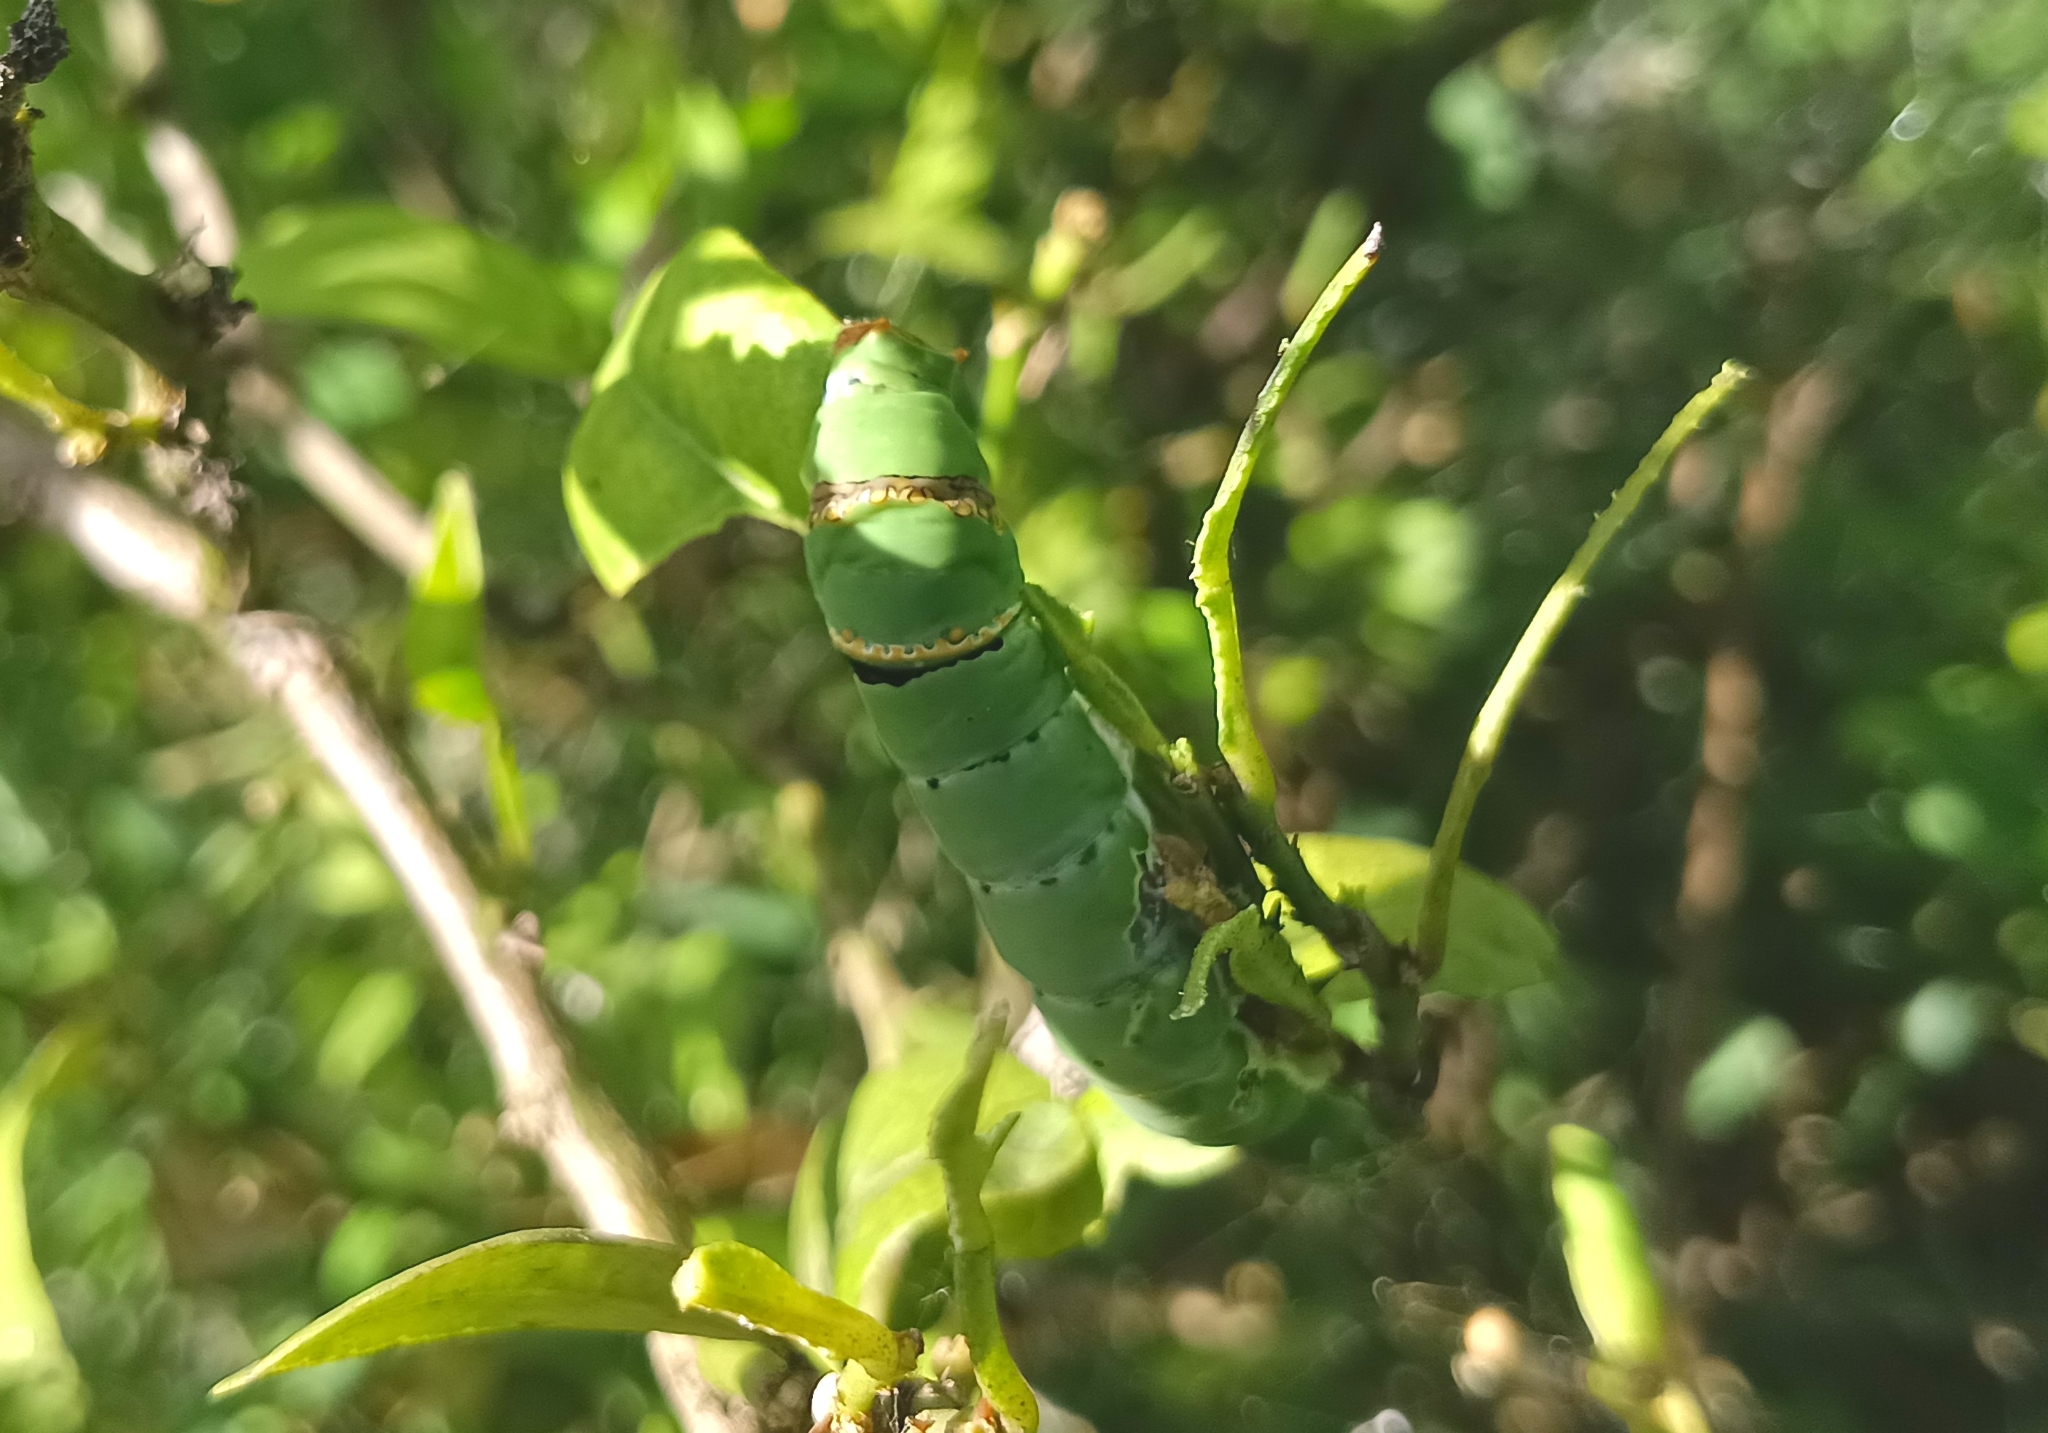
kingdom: Animalia
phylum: Arthropoda
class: Insecta
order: Lepidoptera
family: Papilionidae
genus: Papilio
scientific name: Papilio demoleus
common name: Lime butterfly
